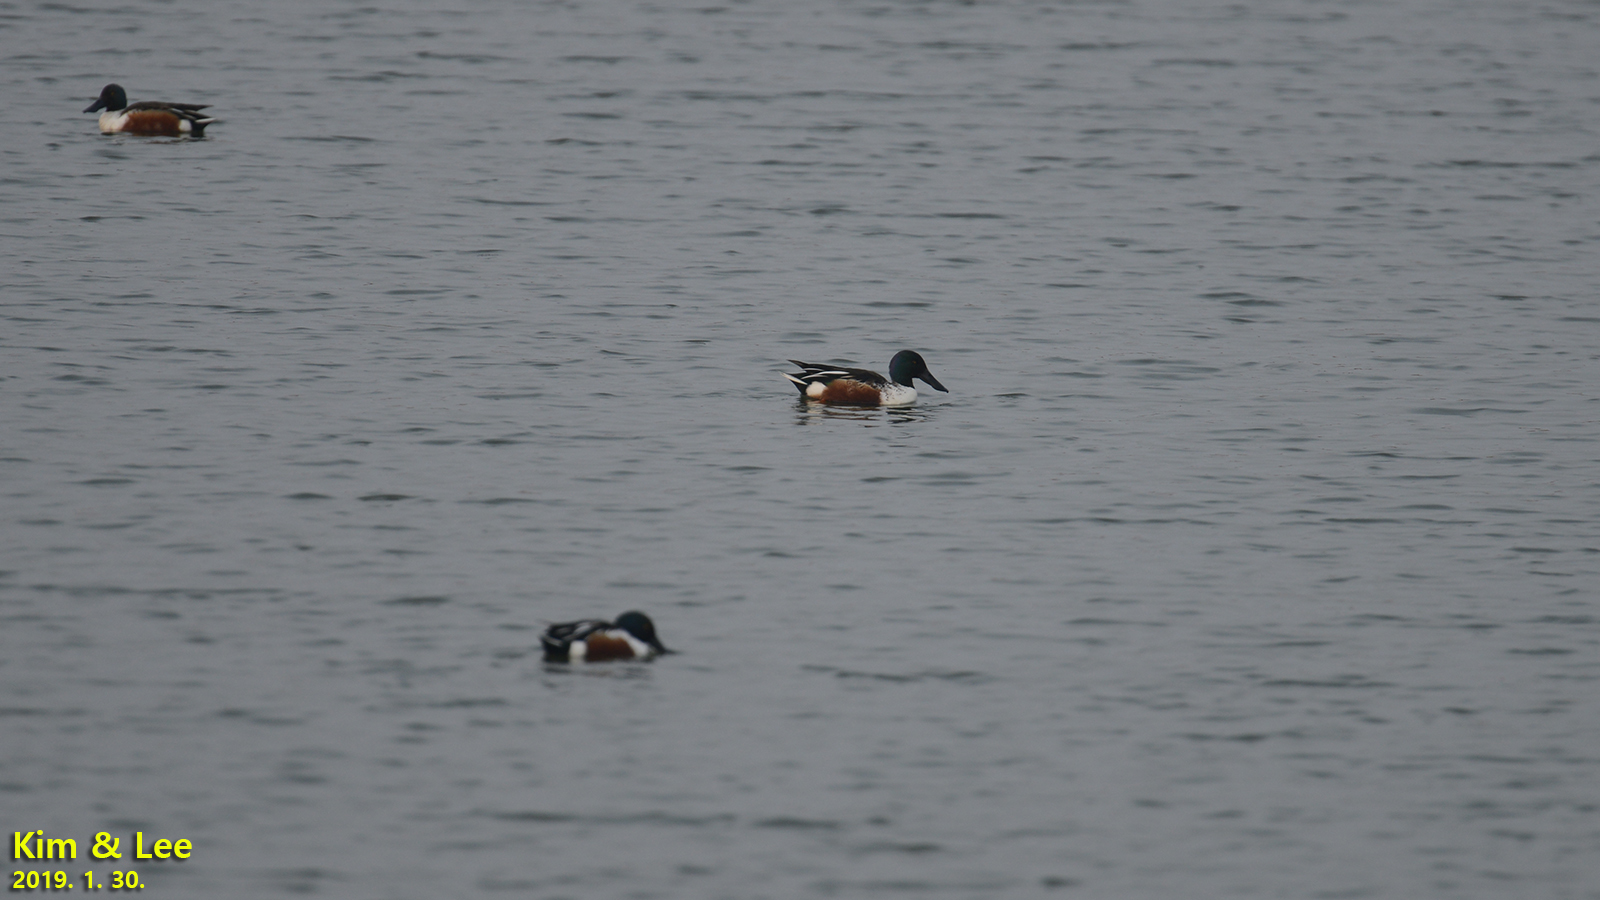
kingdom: Animalia
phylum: Chordata
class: Aves
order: Anseriformes
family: Anatidae
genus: Spatula
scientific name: Spatula clypeata
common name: Northern shoveler
